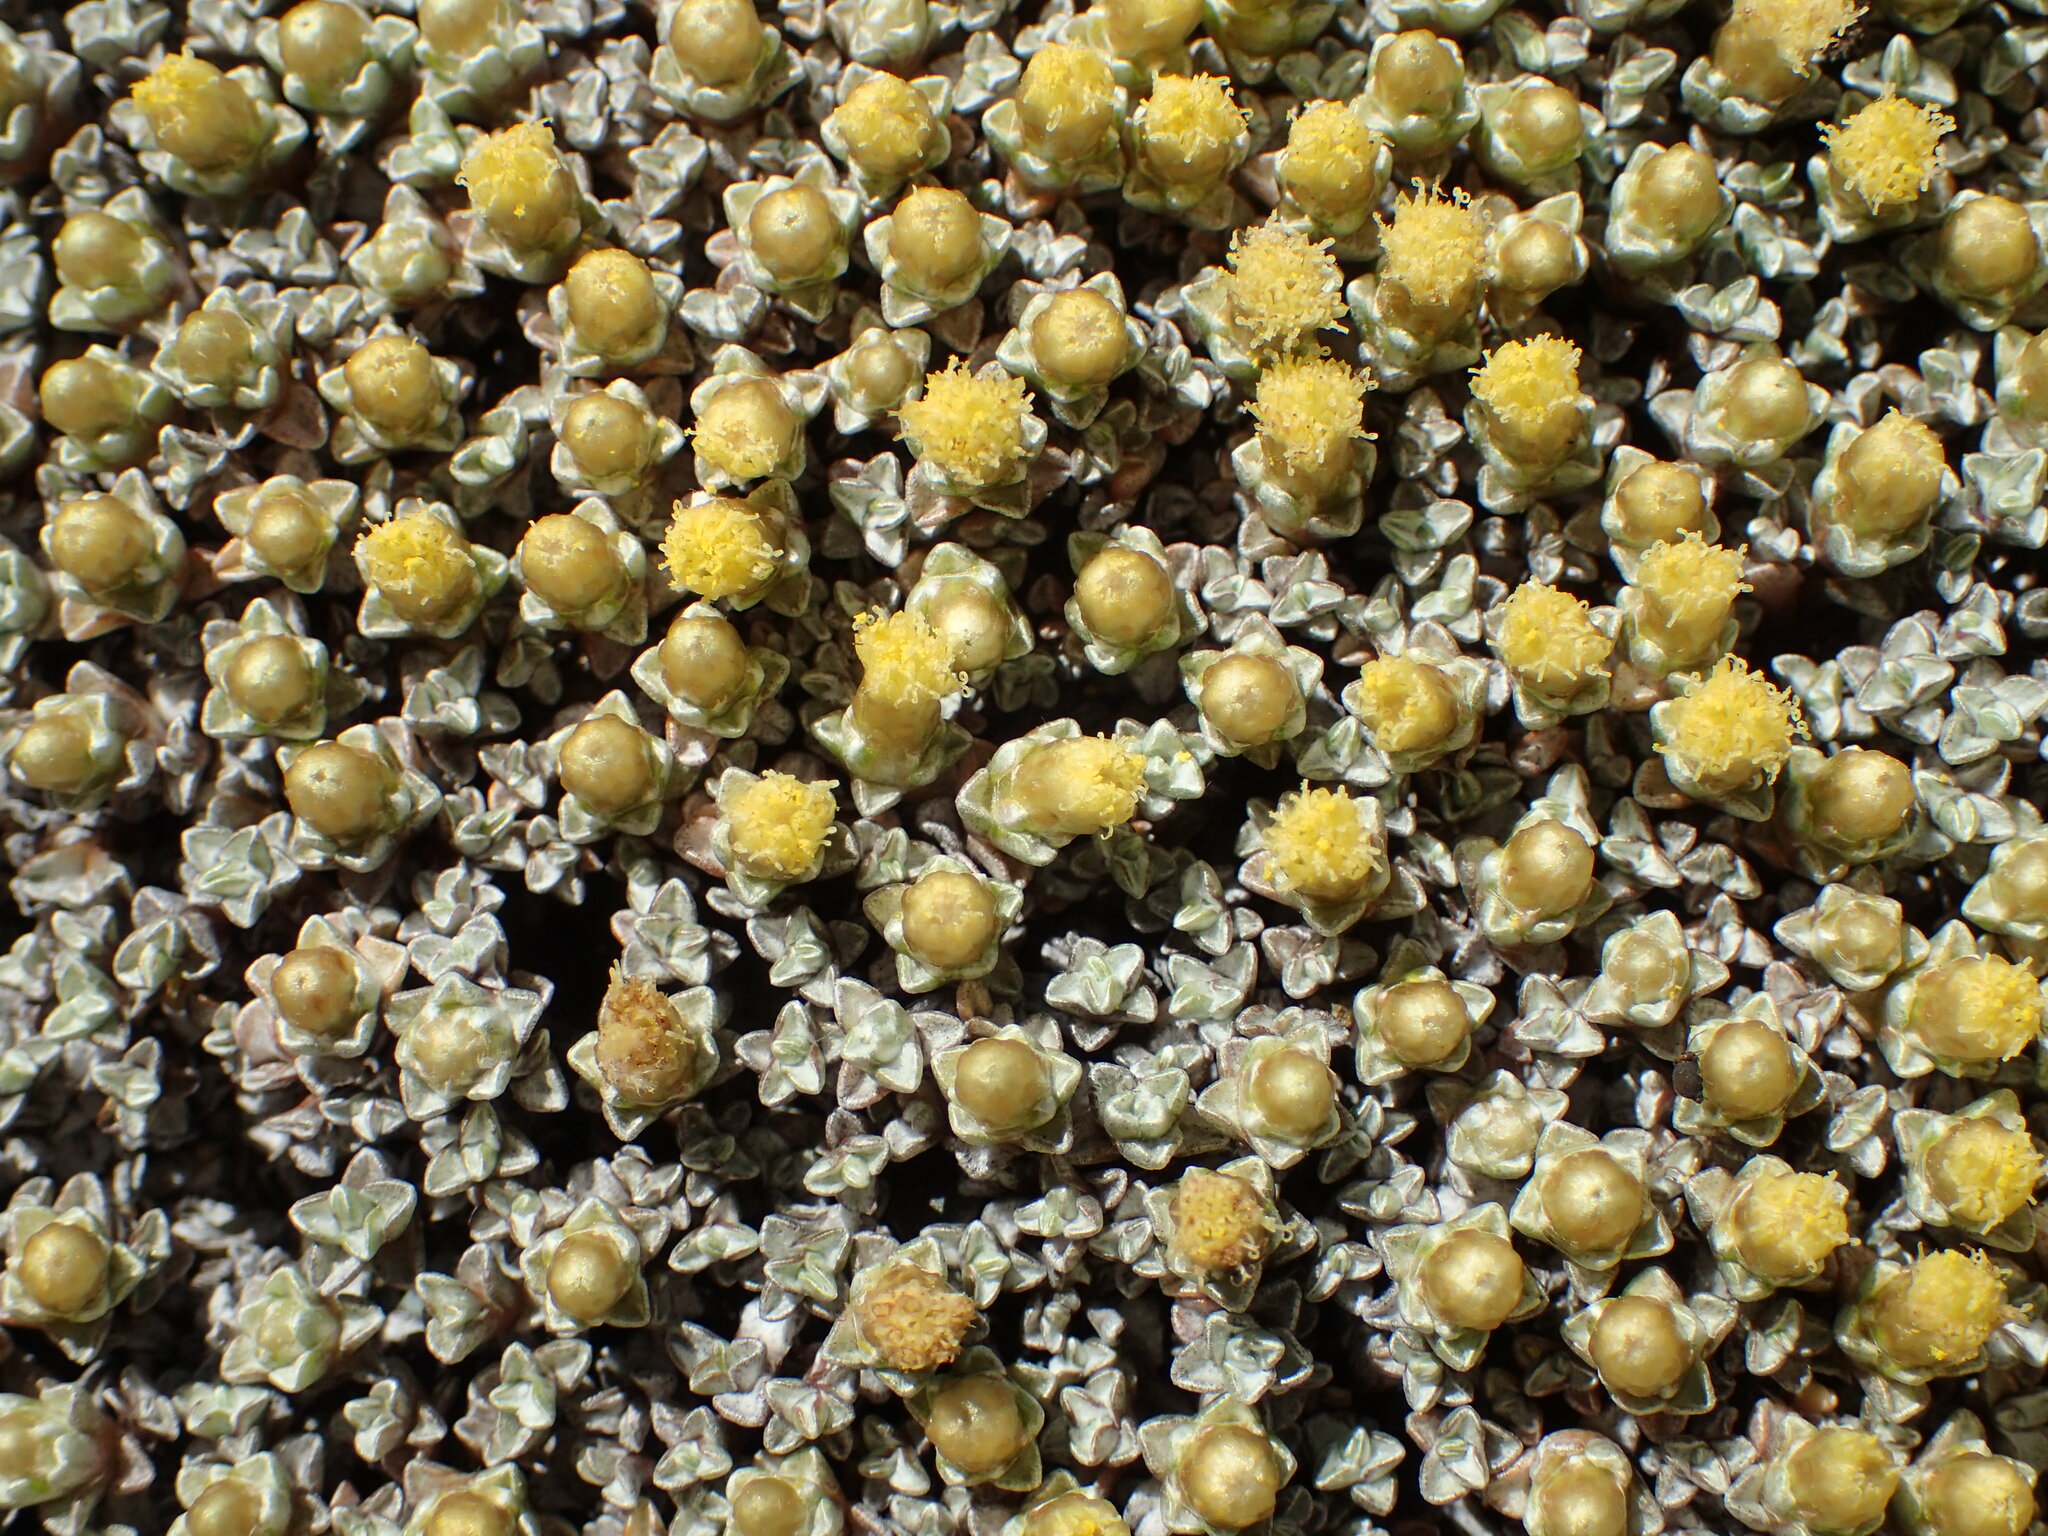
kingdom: Plantae
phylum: Tracheophyta
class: Magnoliopsida
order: Asterales
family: Asteraceae
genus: Raoulia
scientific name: Raoulia hookeri
